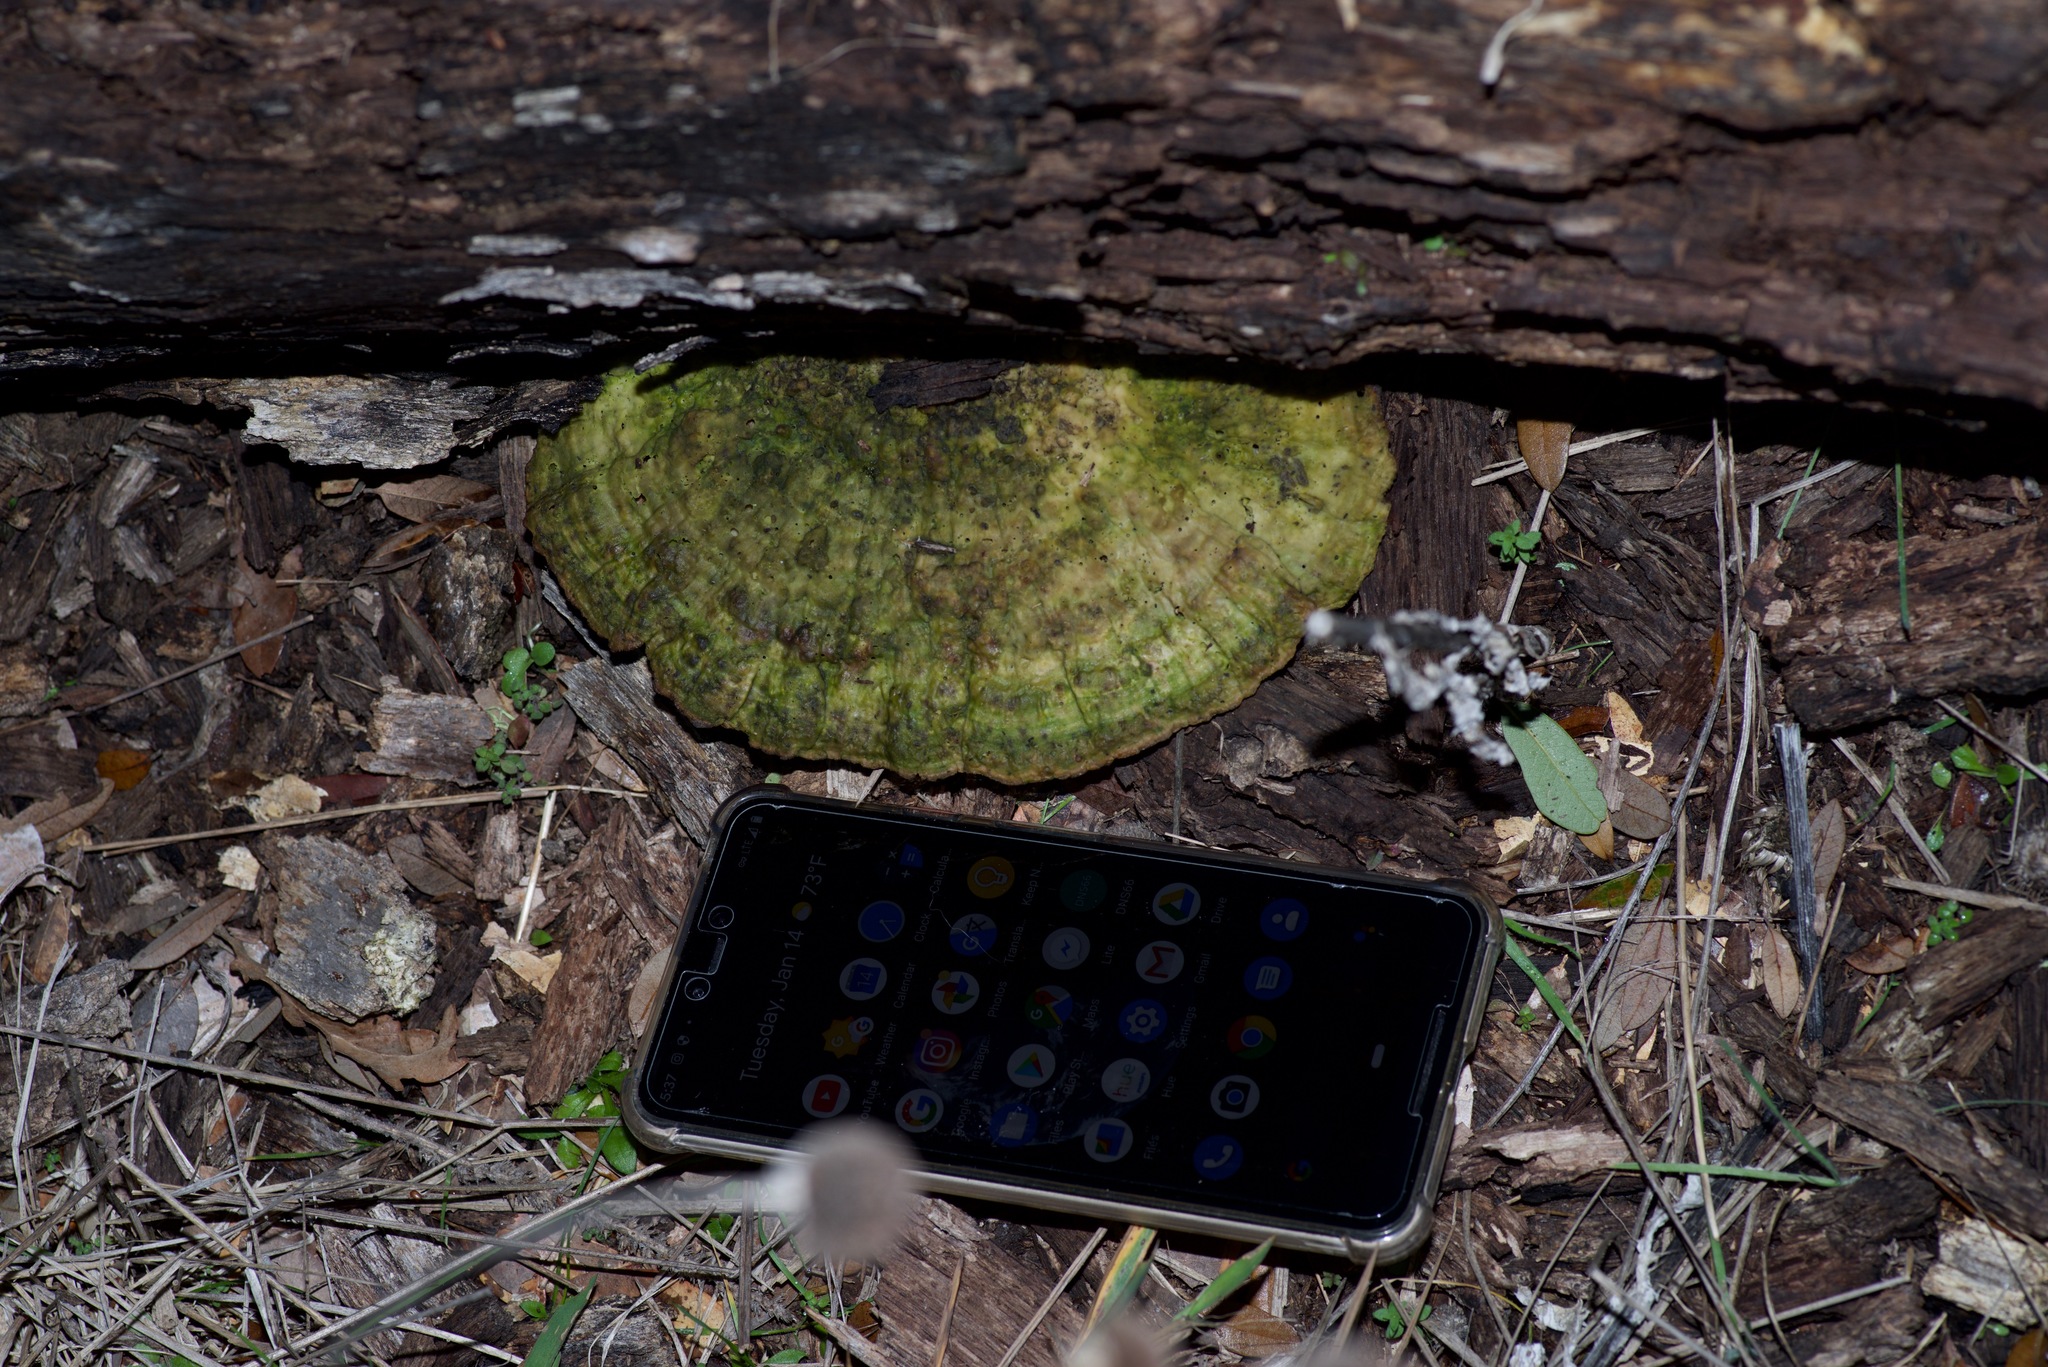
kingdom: Fungi
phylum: Basidiomycota
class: Agaricomycetes
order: Polyporales
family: Polyporaceae
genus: Trametes
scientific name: Trametes gibbosa
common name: Lumpy bracket
